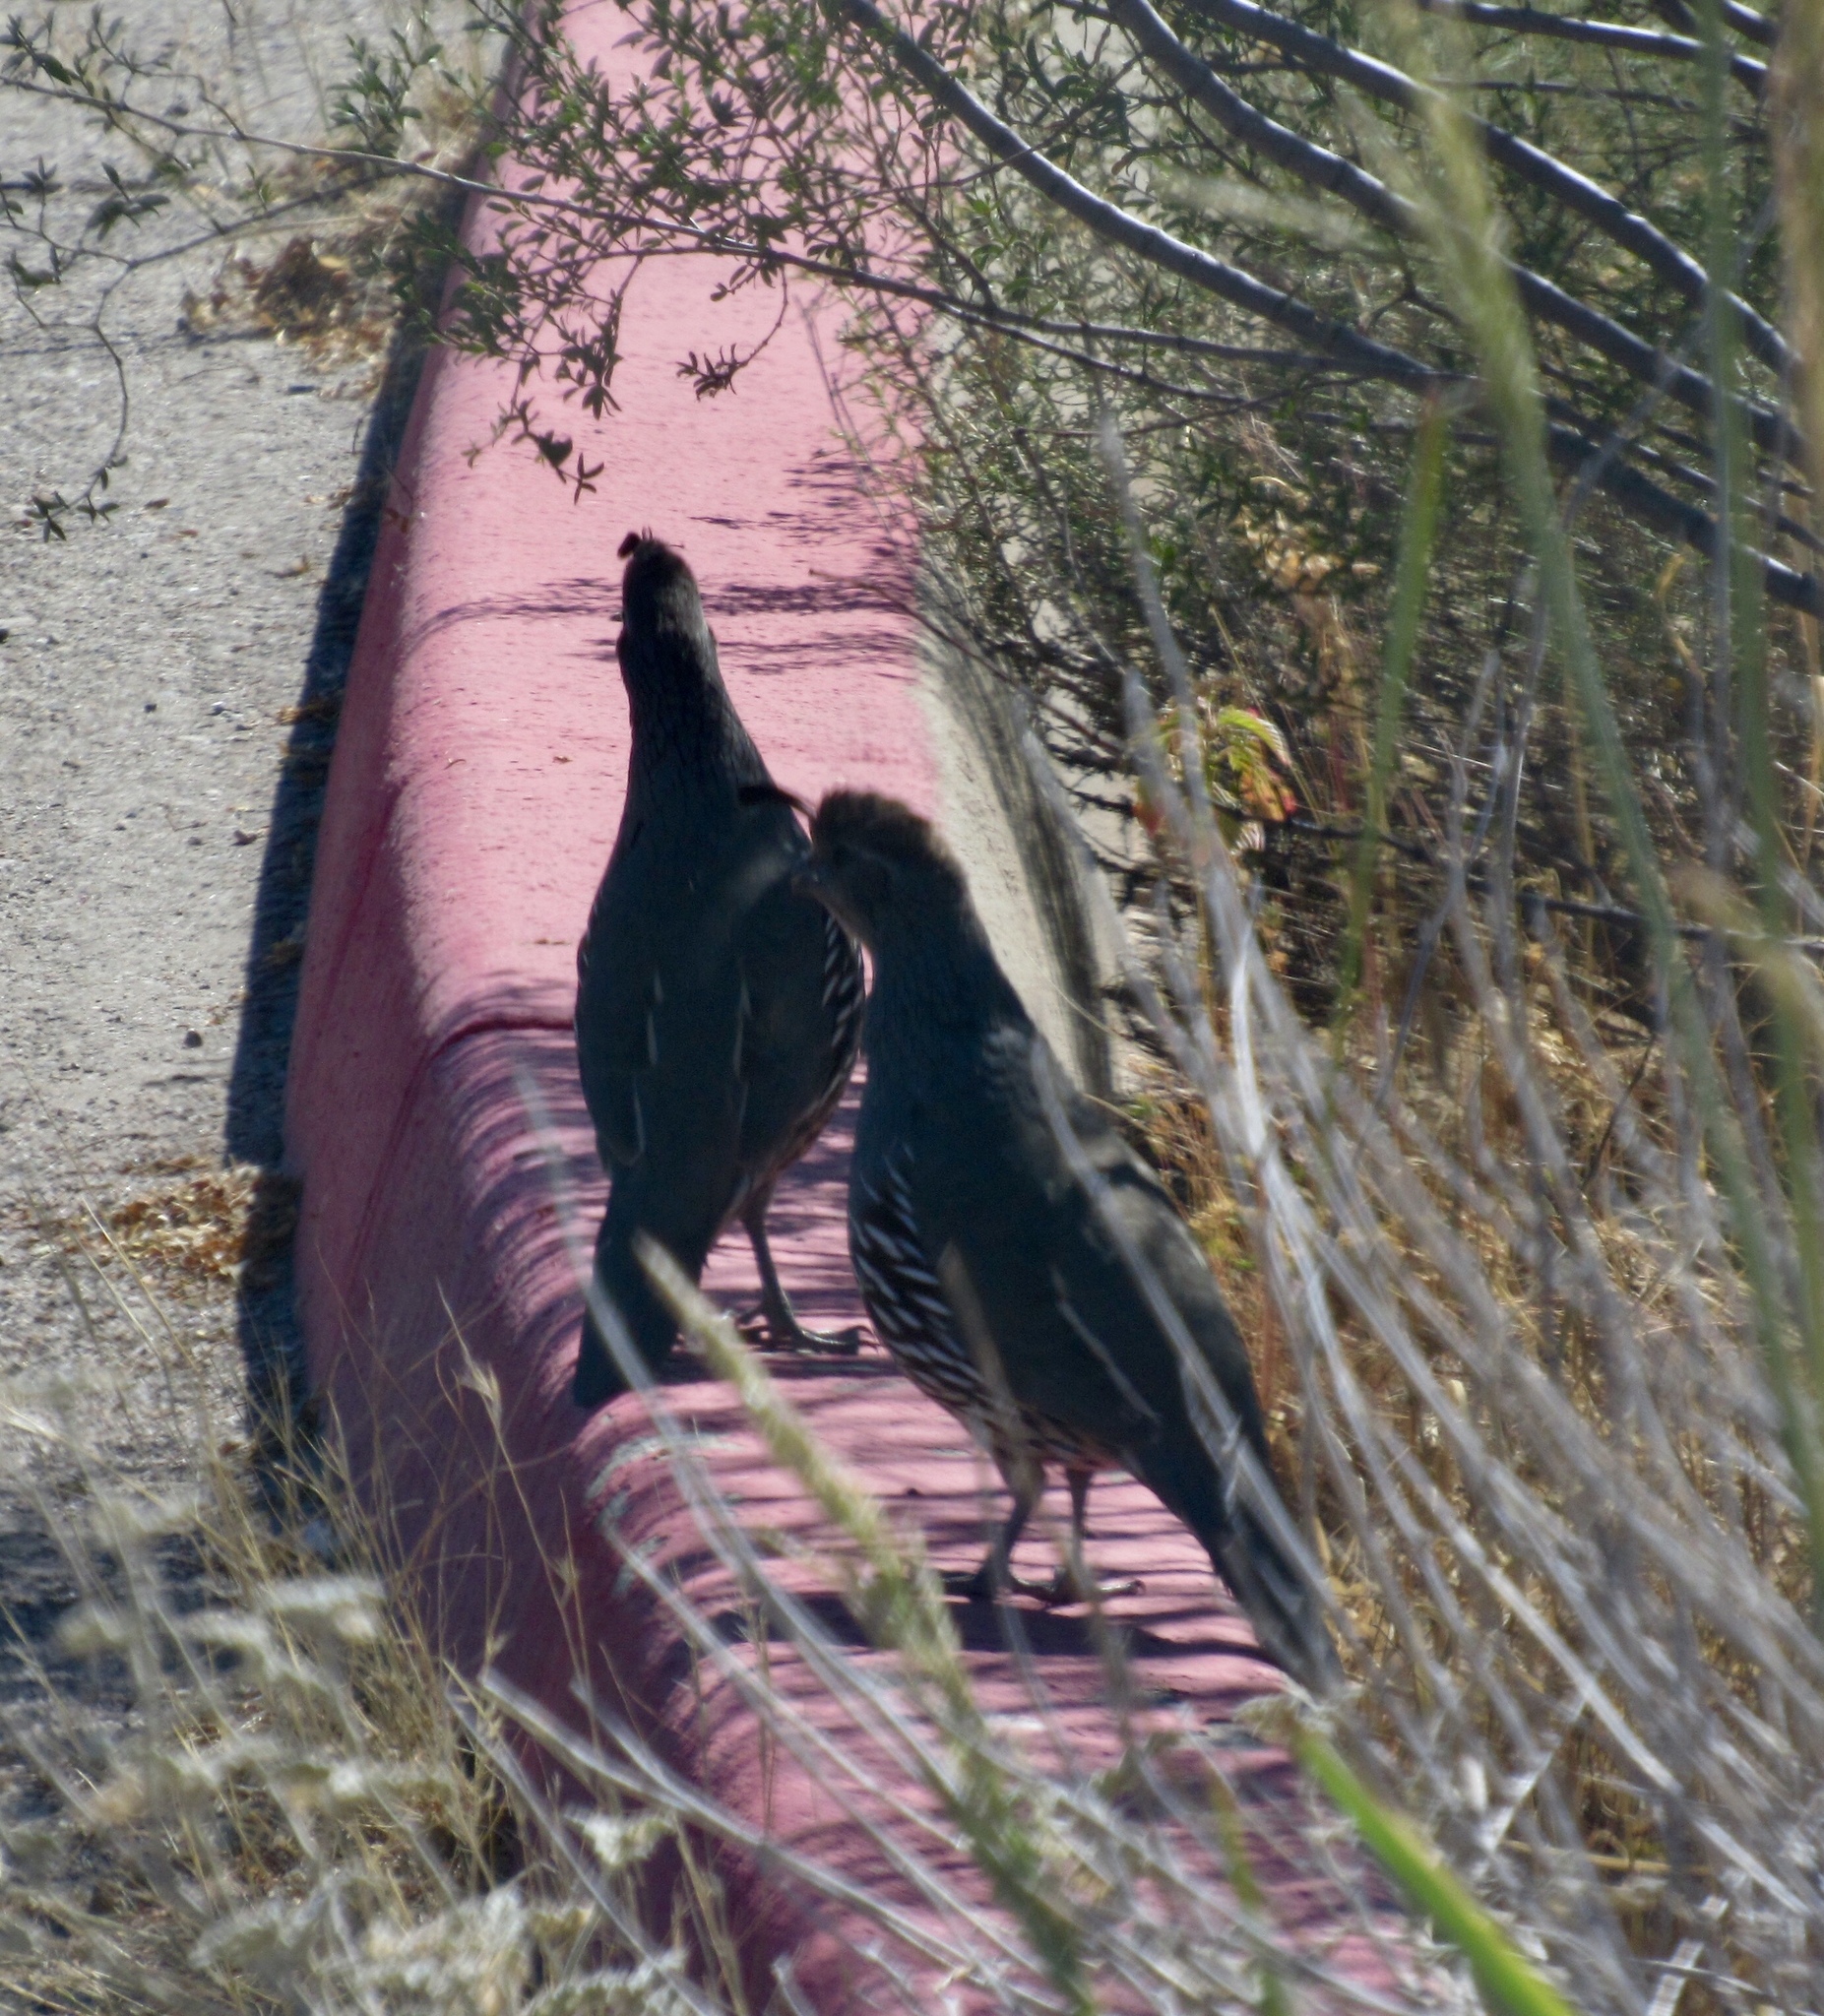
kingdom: Animalia
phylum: Chordata
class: Aves
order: Galliformes
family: Odontophoridae
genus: Callipepla
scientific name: Callipepla gambelii
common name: Gambel's quail
